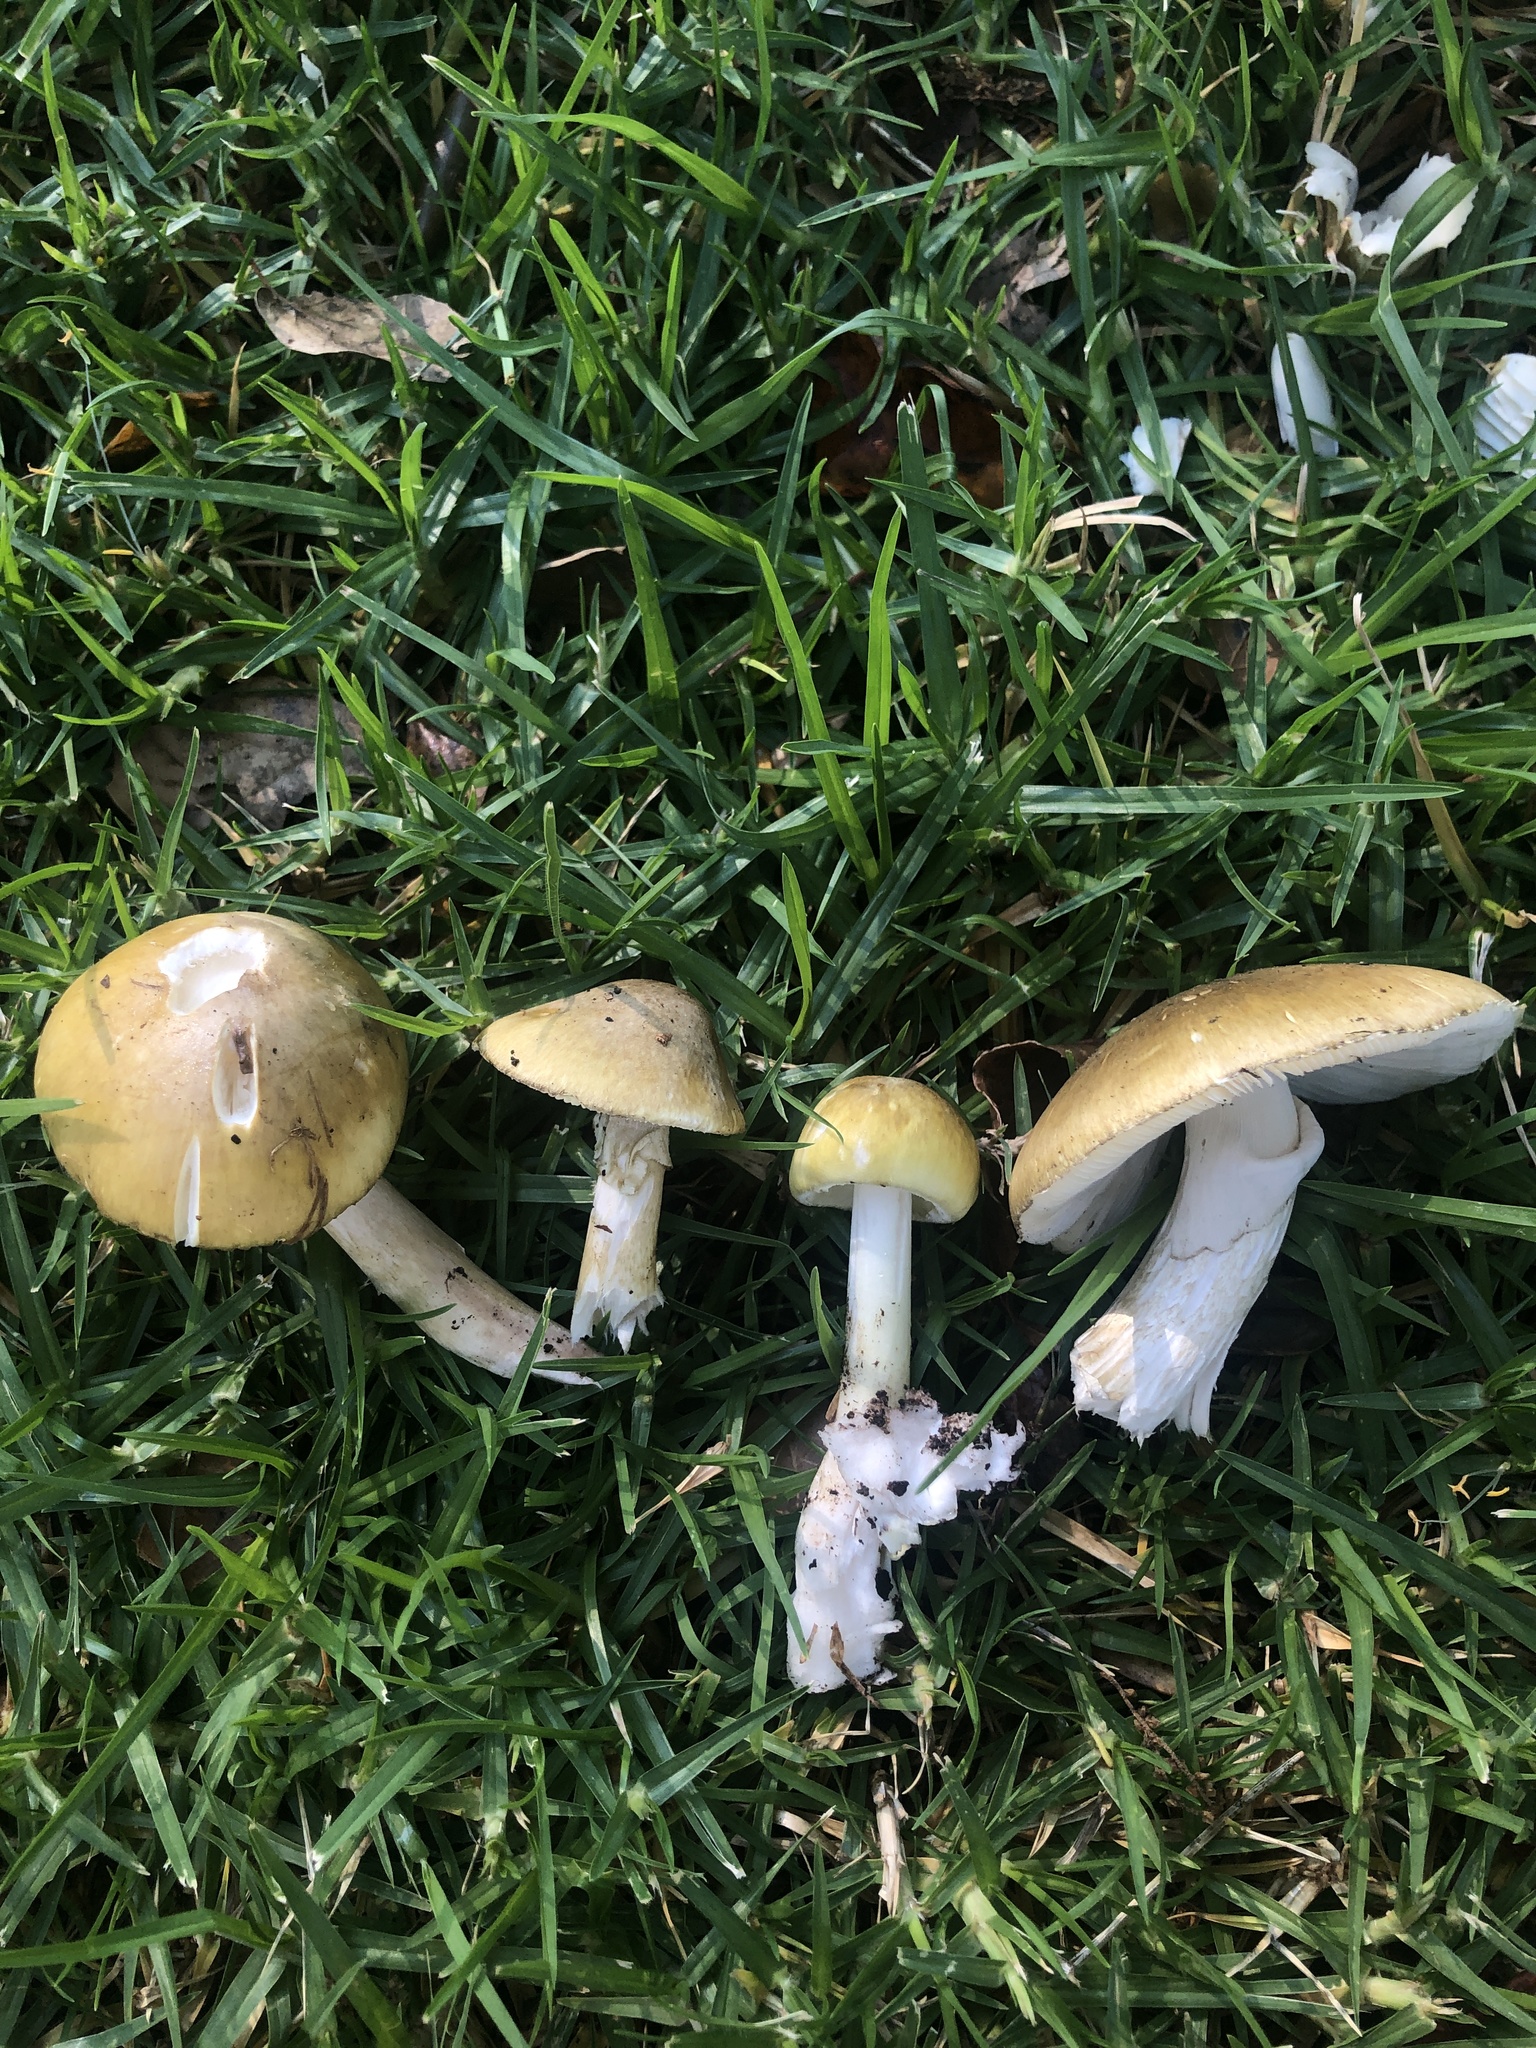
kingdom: Fungi
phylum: Basidiomycota
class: Agaricomycetes
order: Agaricales
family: Amanitaceae
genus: Amanita
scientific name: Amanita phalloides
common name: Death cap
